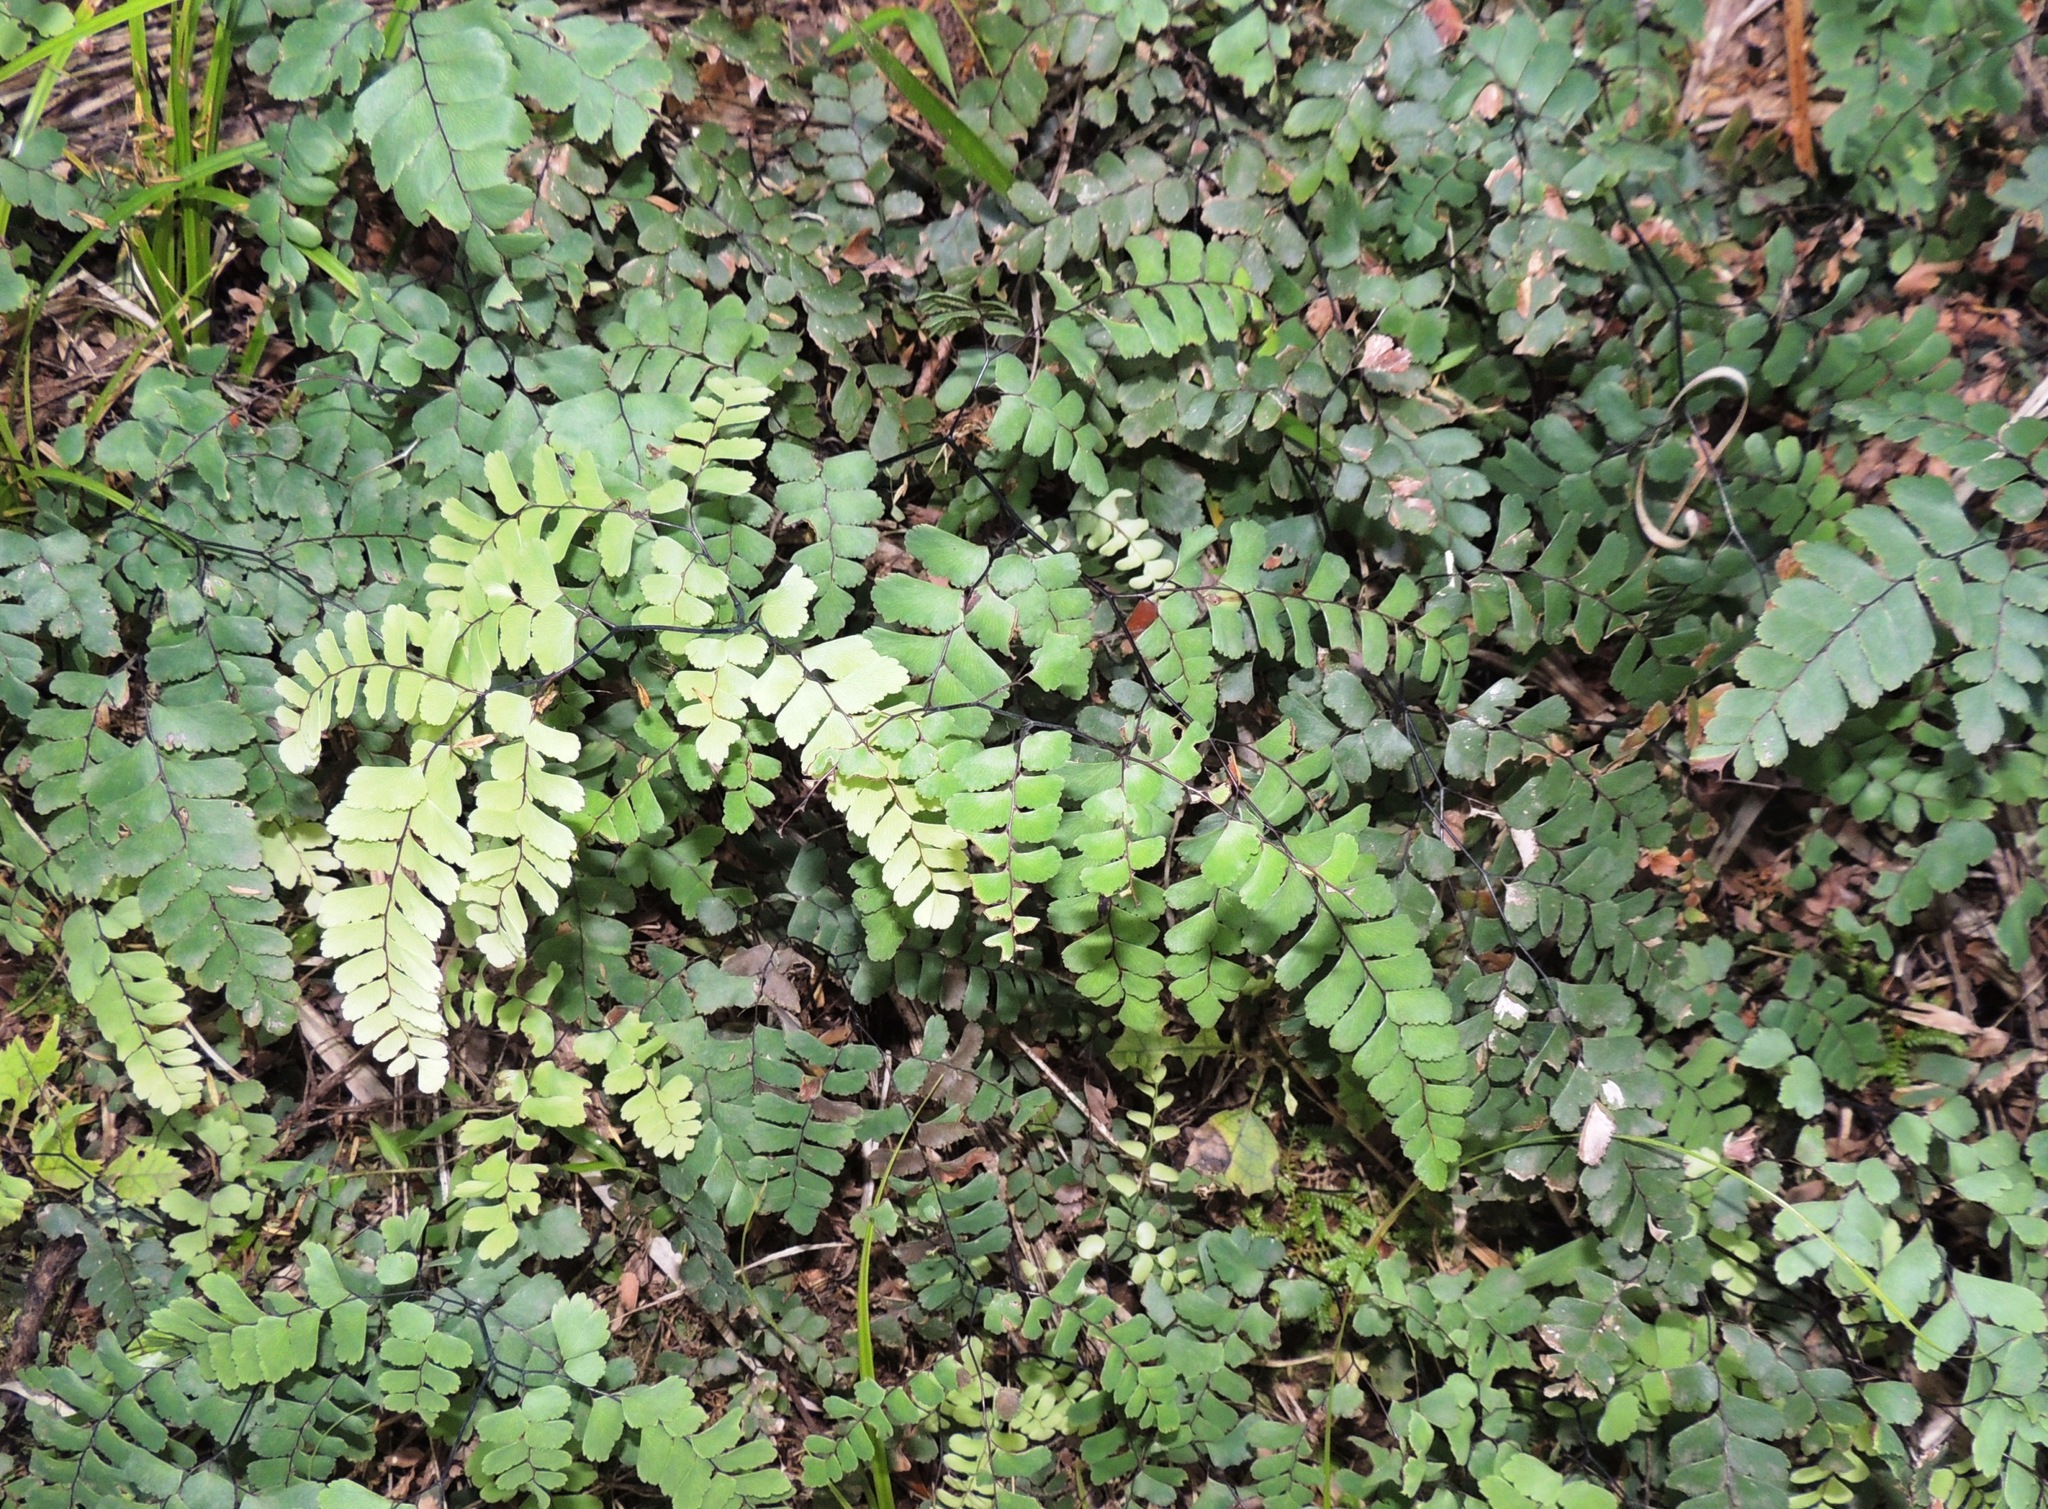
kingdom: Plantae
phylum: Tracheophyta
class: Polypodiopsida
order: Polypodiales
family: Pteridaceae
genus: Adiantum
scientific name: Adiantum cunninghamii
